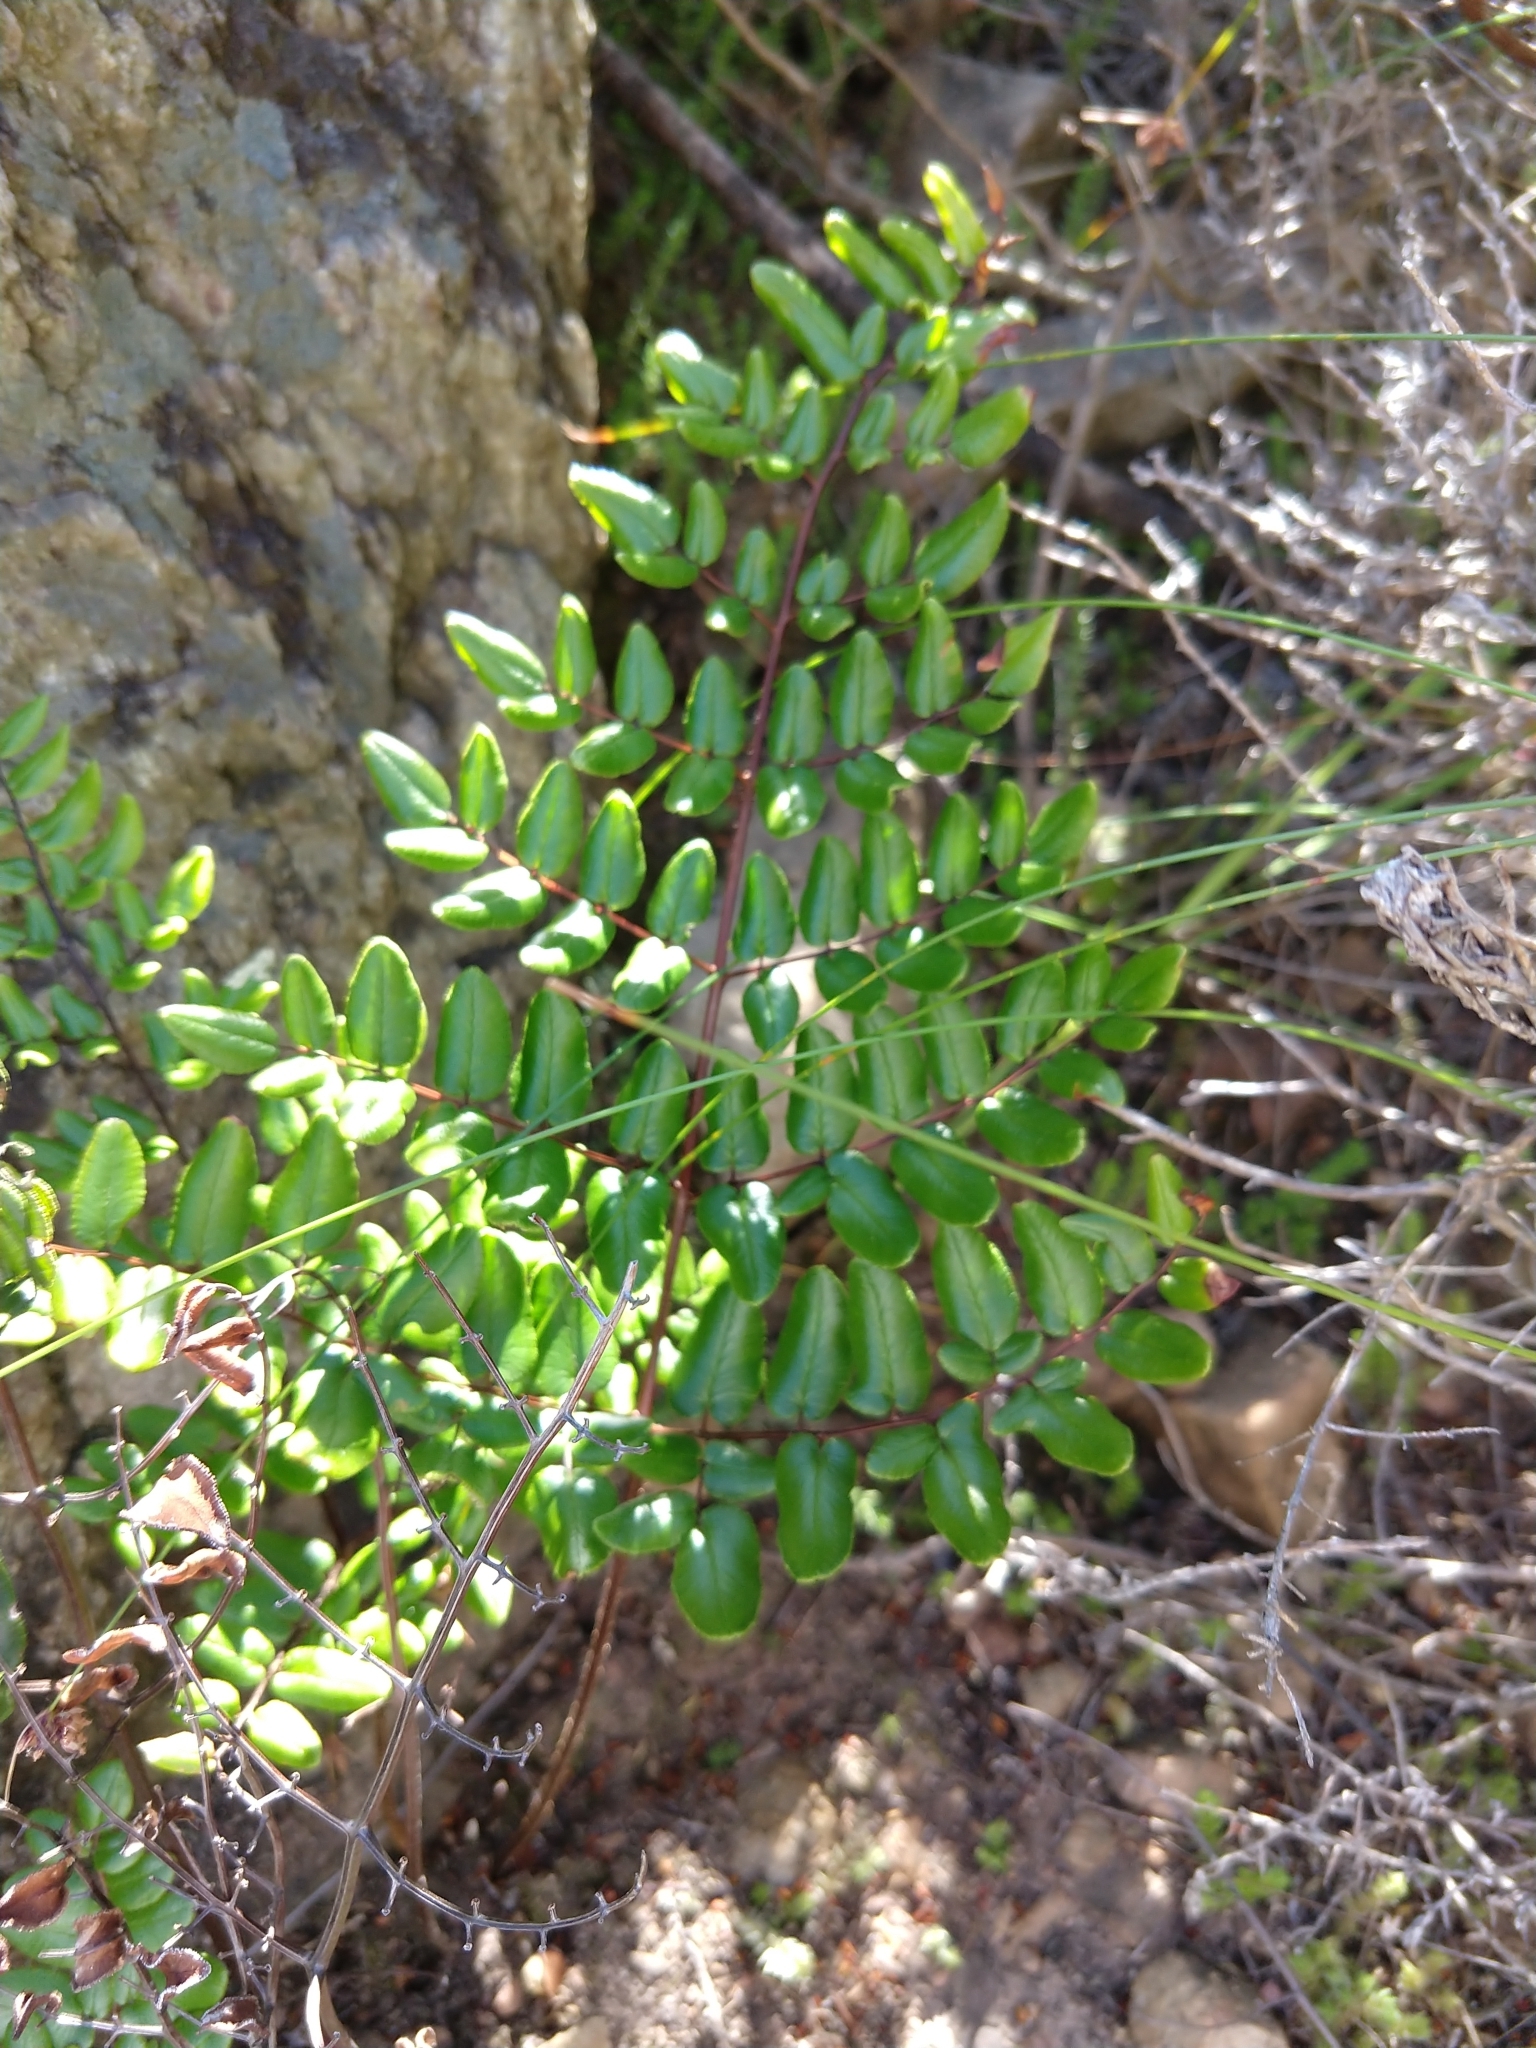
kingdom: Plantae
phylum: Tracheophyta
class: Polypodiopsida
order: Polypodiales
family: Pteridaceae
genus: Pellaea
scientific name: Pellaea pteroides
